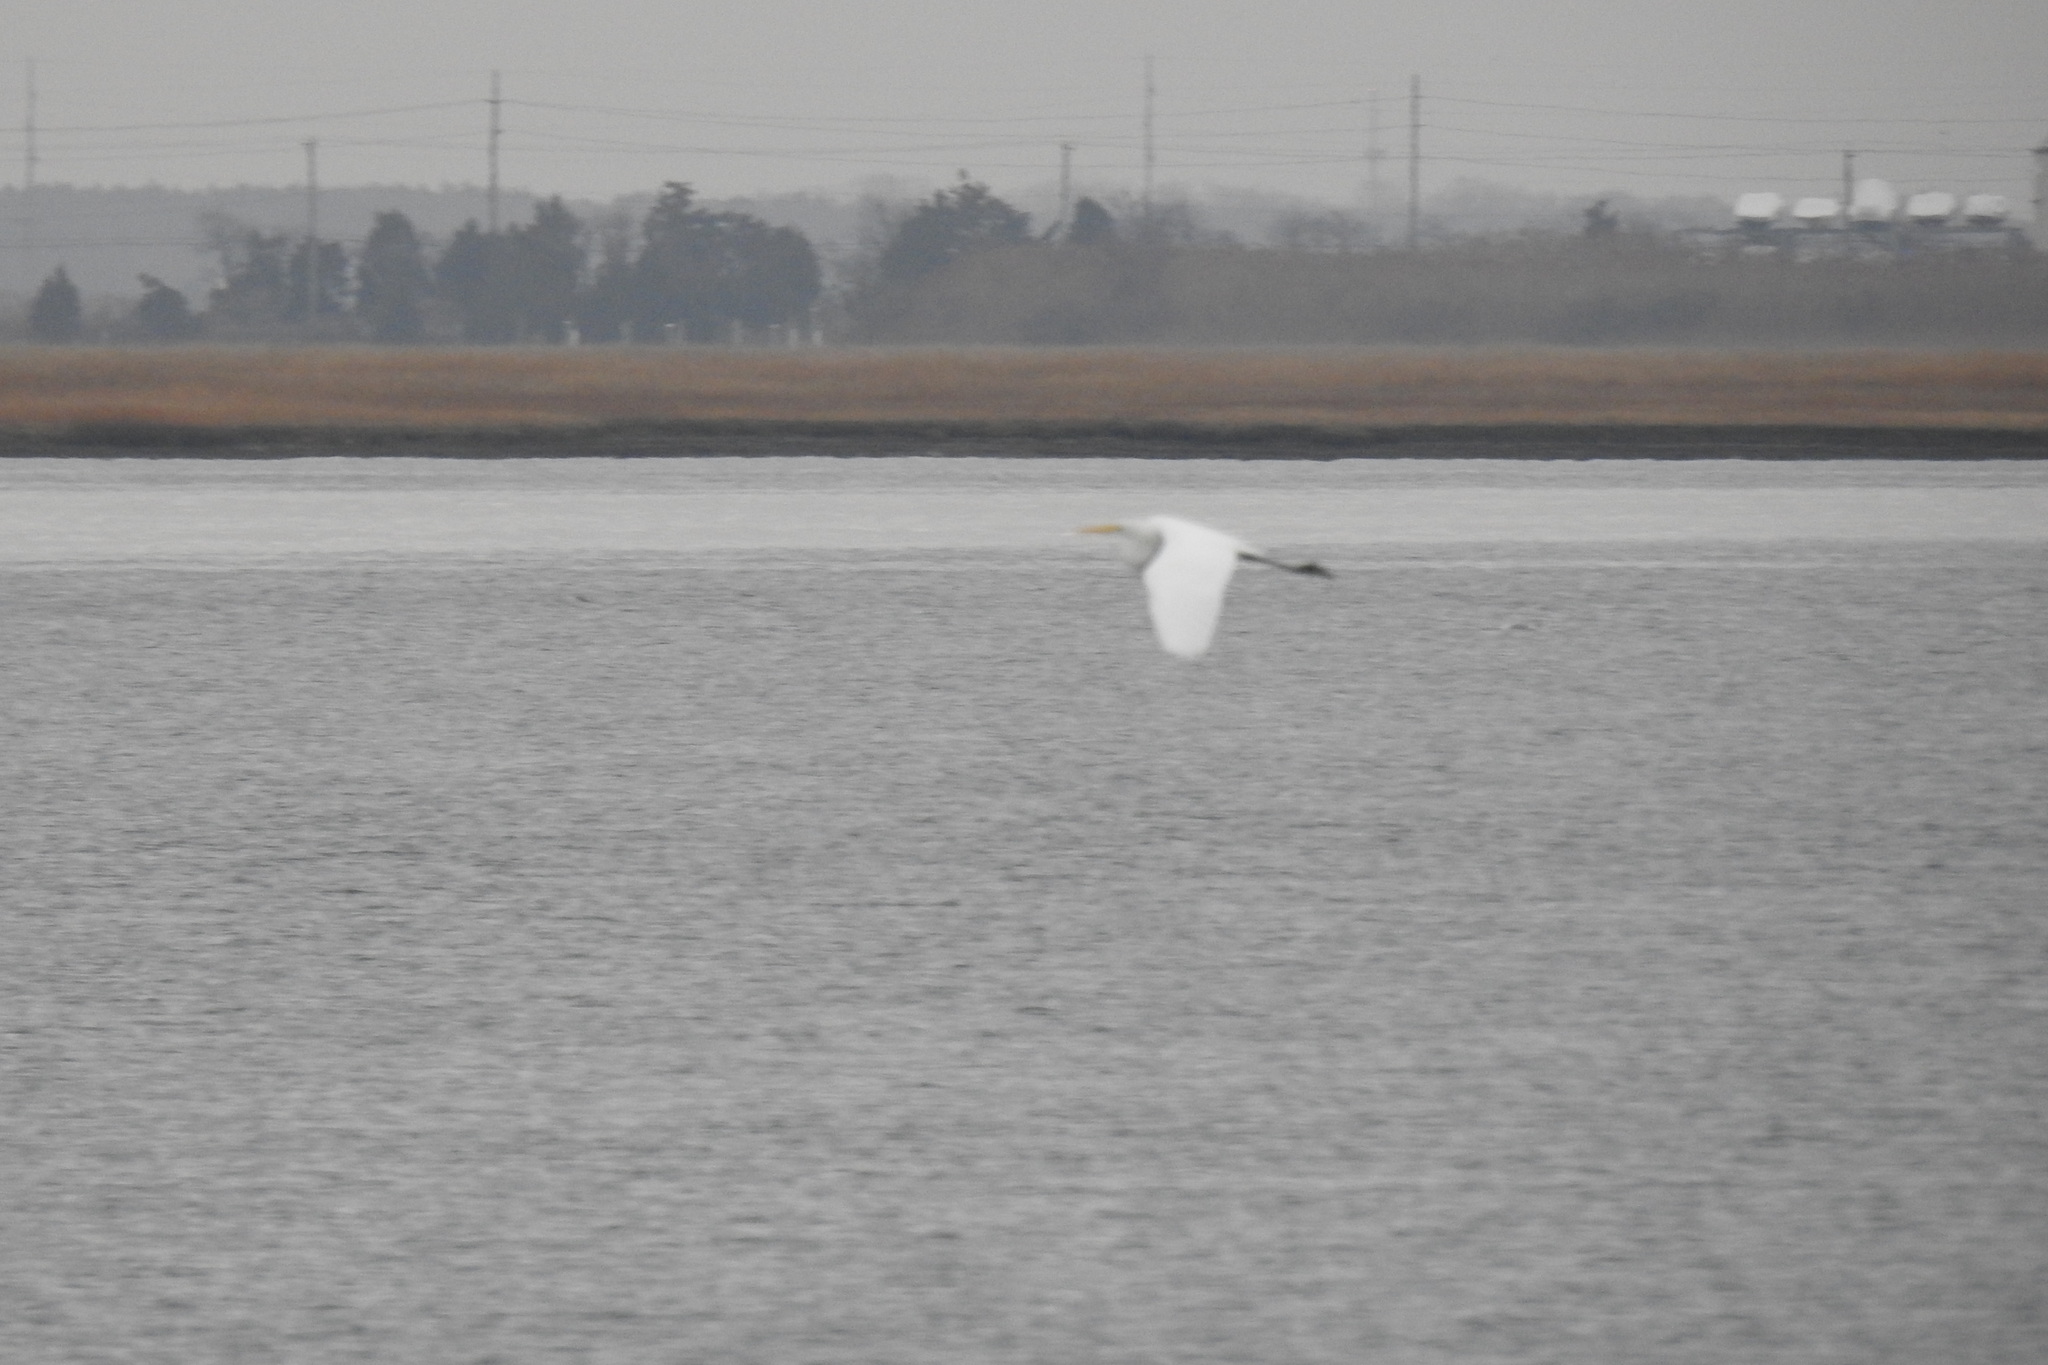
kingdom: Animalia
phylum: Chordata
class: Aves
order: Pelecaniformes
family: Ardeidae
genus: Ardea
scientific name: Ardea alba
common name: Great egret
